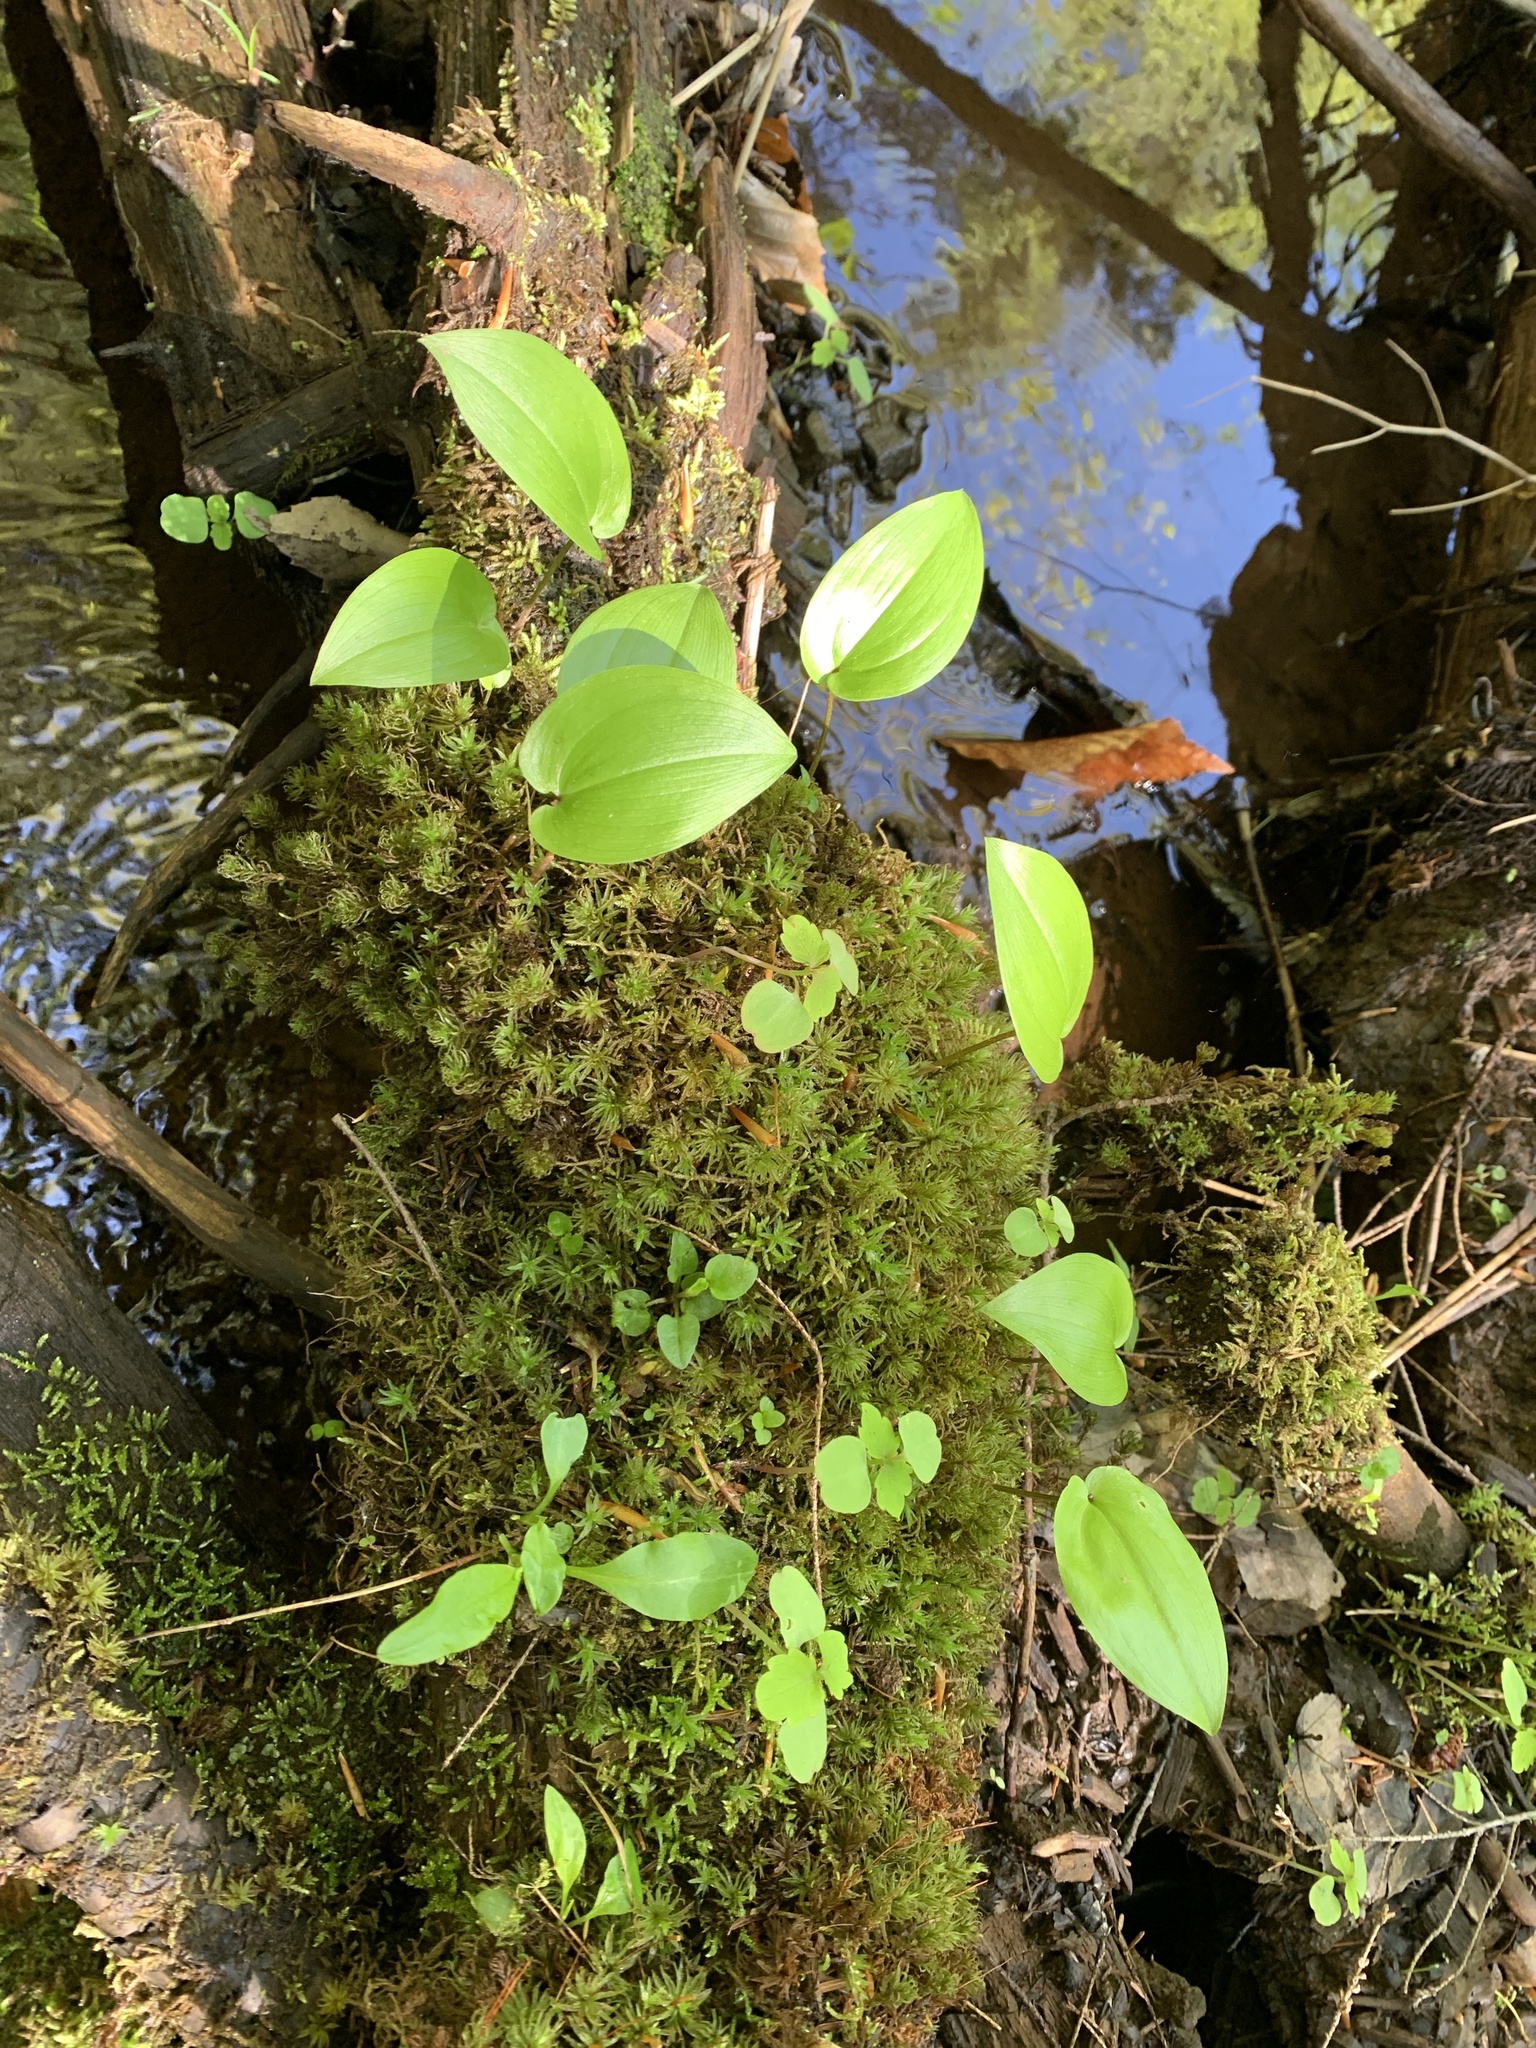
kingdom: Plantae
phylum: Tracheophyta
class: Liliopsida
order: Asparagales
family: Asparagaceae
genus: Maianthemum
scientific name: Maianthemum canadense
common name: False lily-of-the-valley
